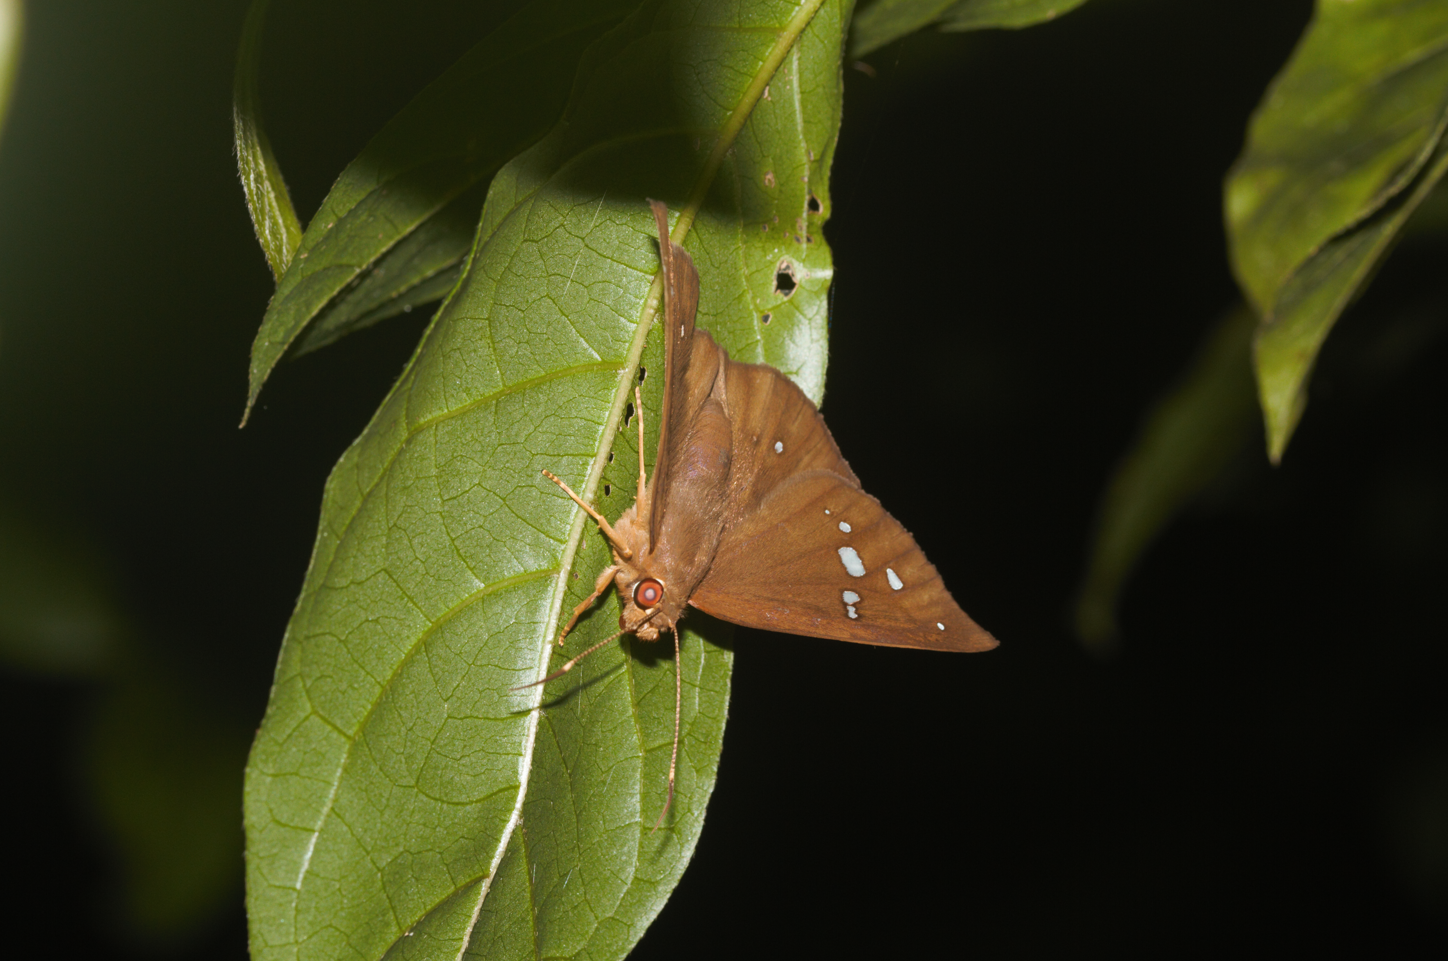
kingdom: Animalia
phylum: Arthropoda
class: Insecta
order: Lepidoptera
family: Hesperiidae
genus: Salatis
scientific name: Salatis salatis
